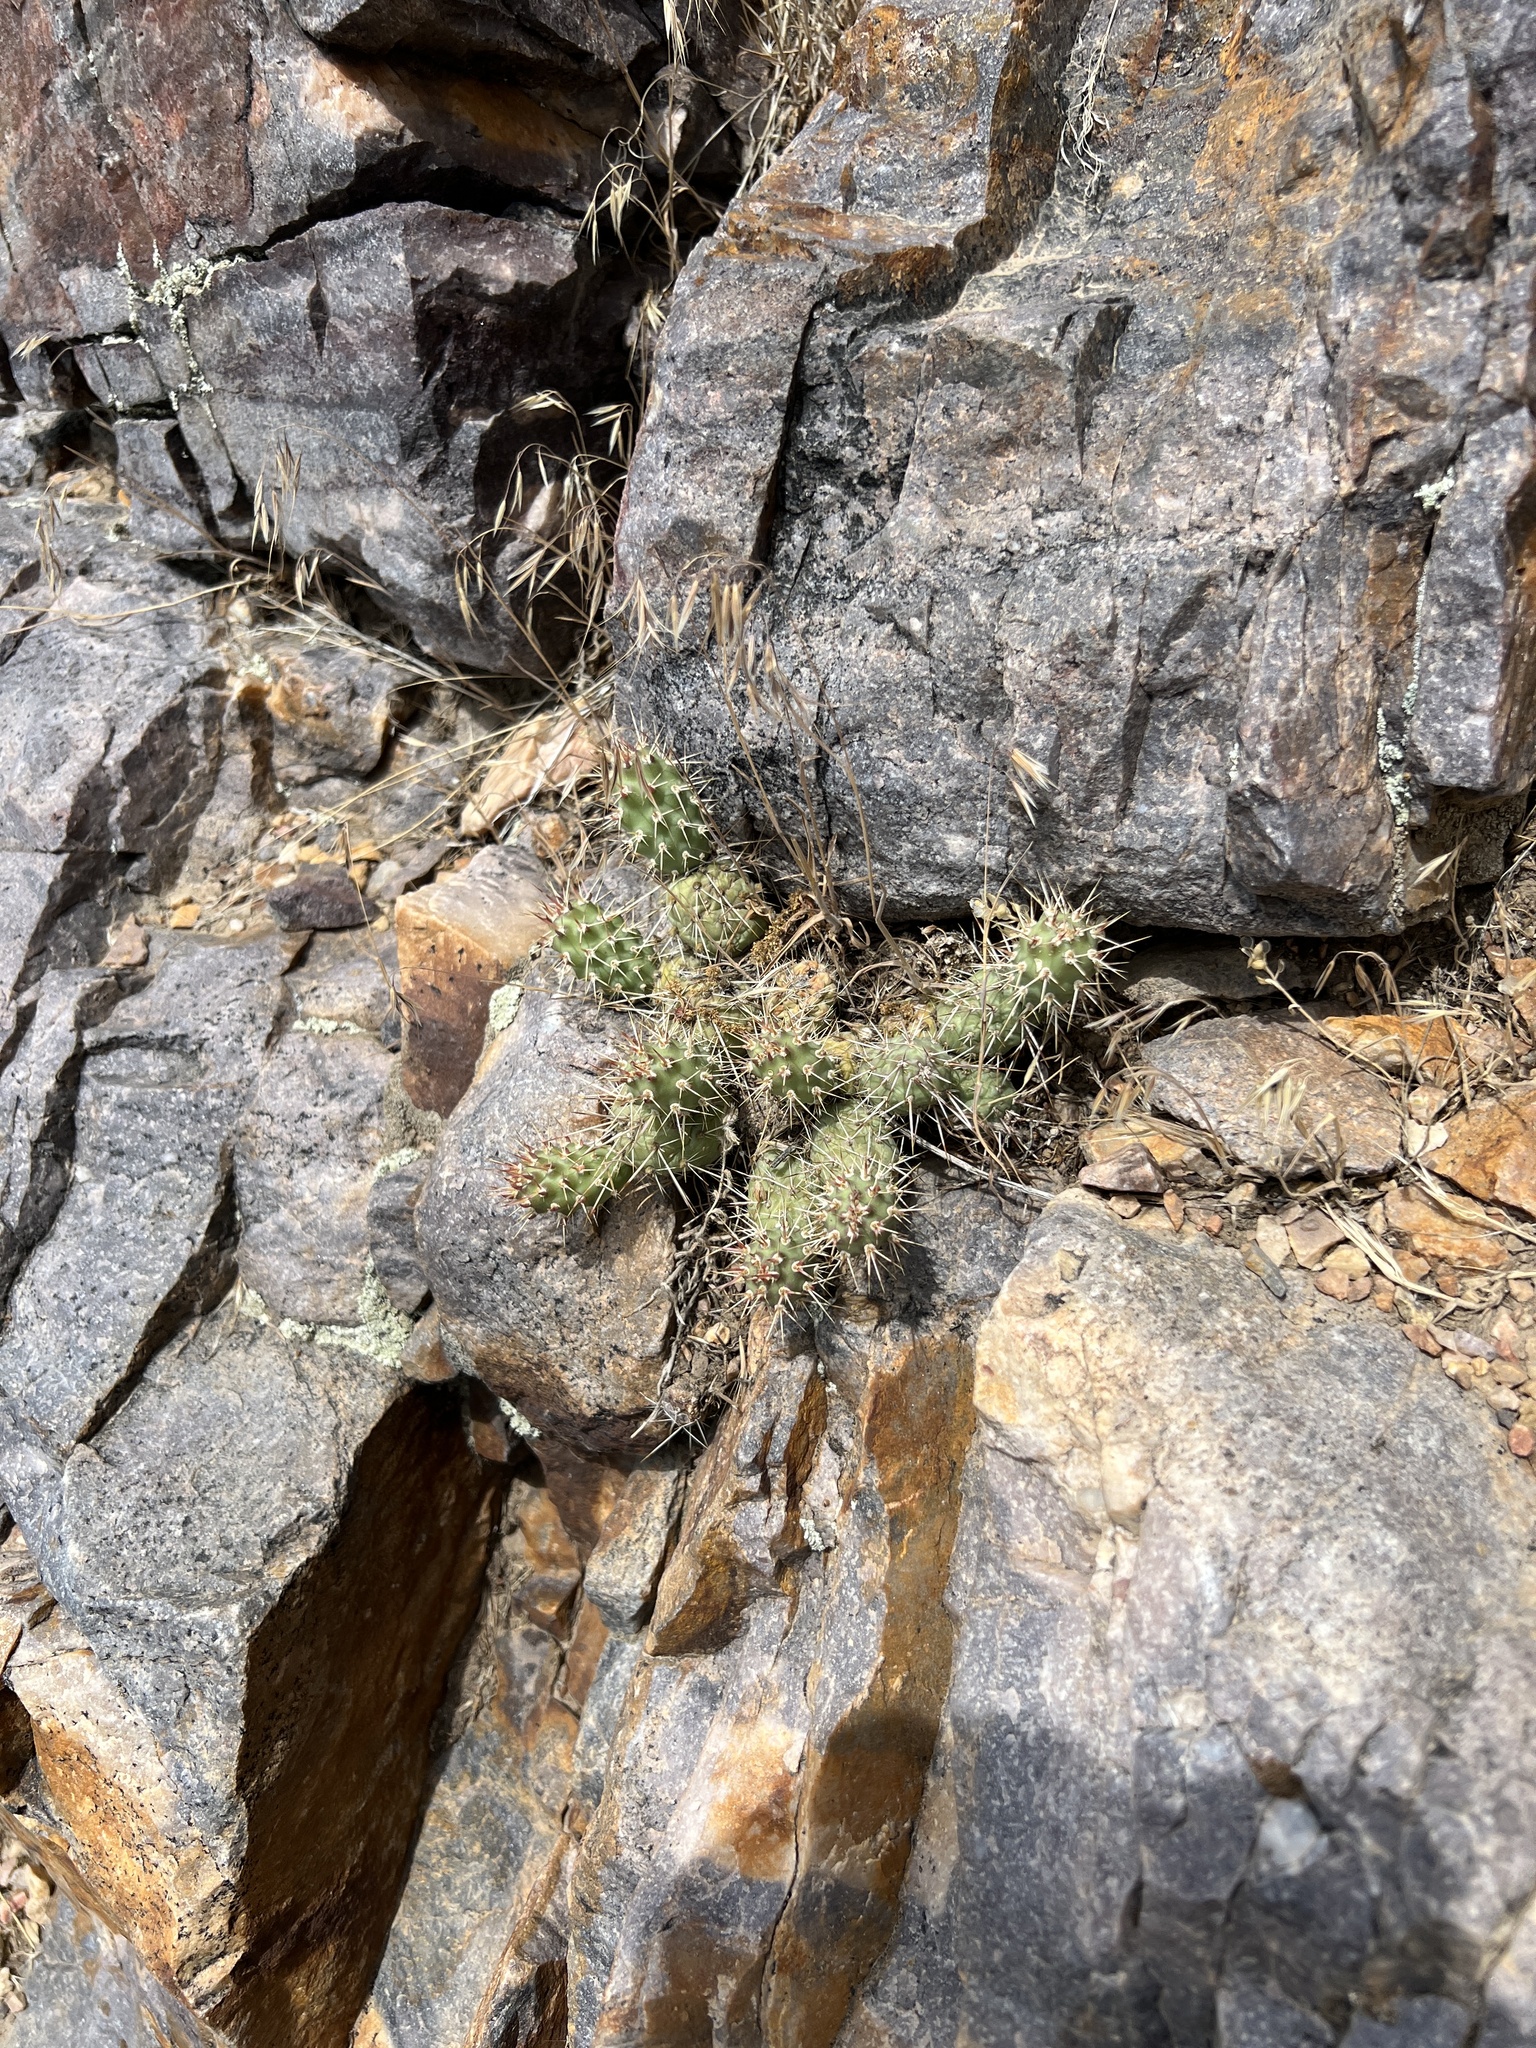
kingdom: Plantae
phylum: Tracheophyta
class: Magnoliopsida
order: Caryophyllales
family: Cactaceae
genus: Opuntia
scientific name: Opuntia fragilis
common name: Brittle cactus
